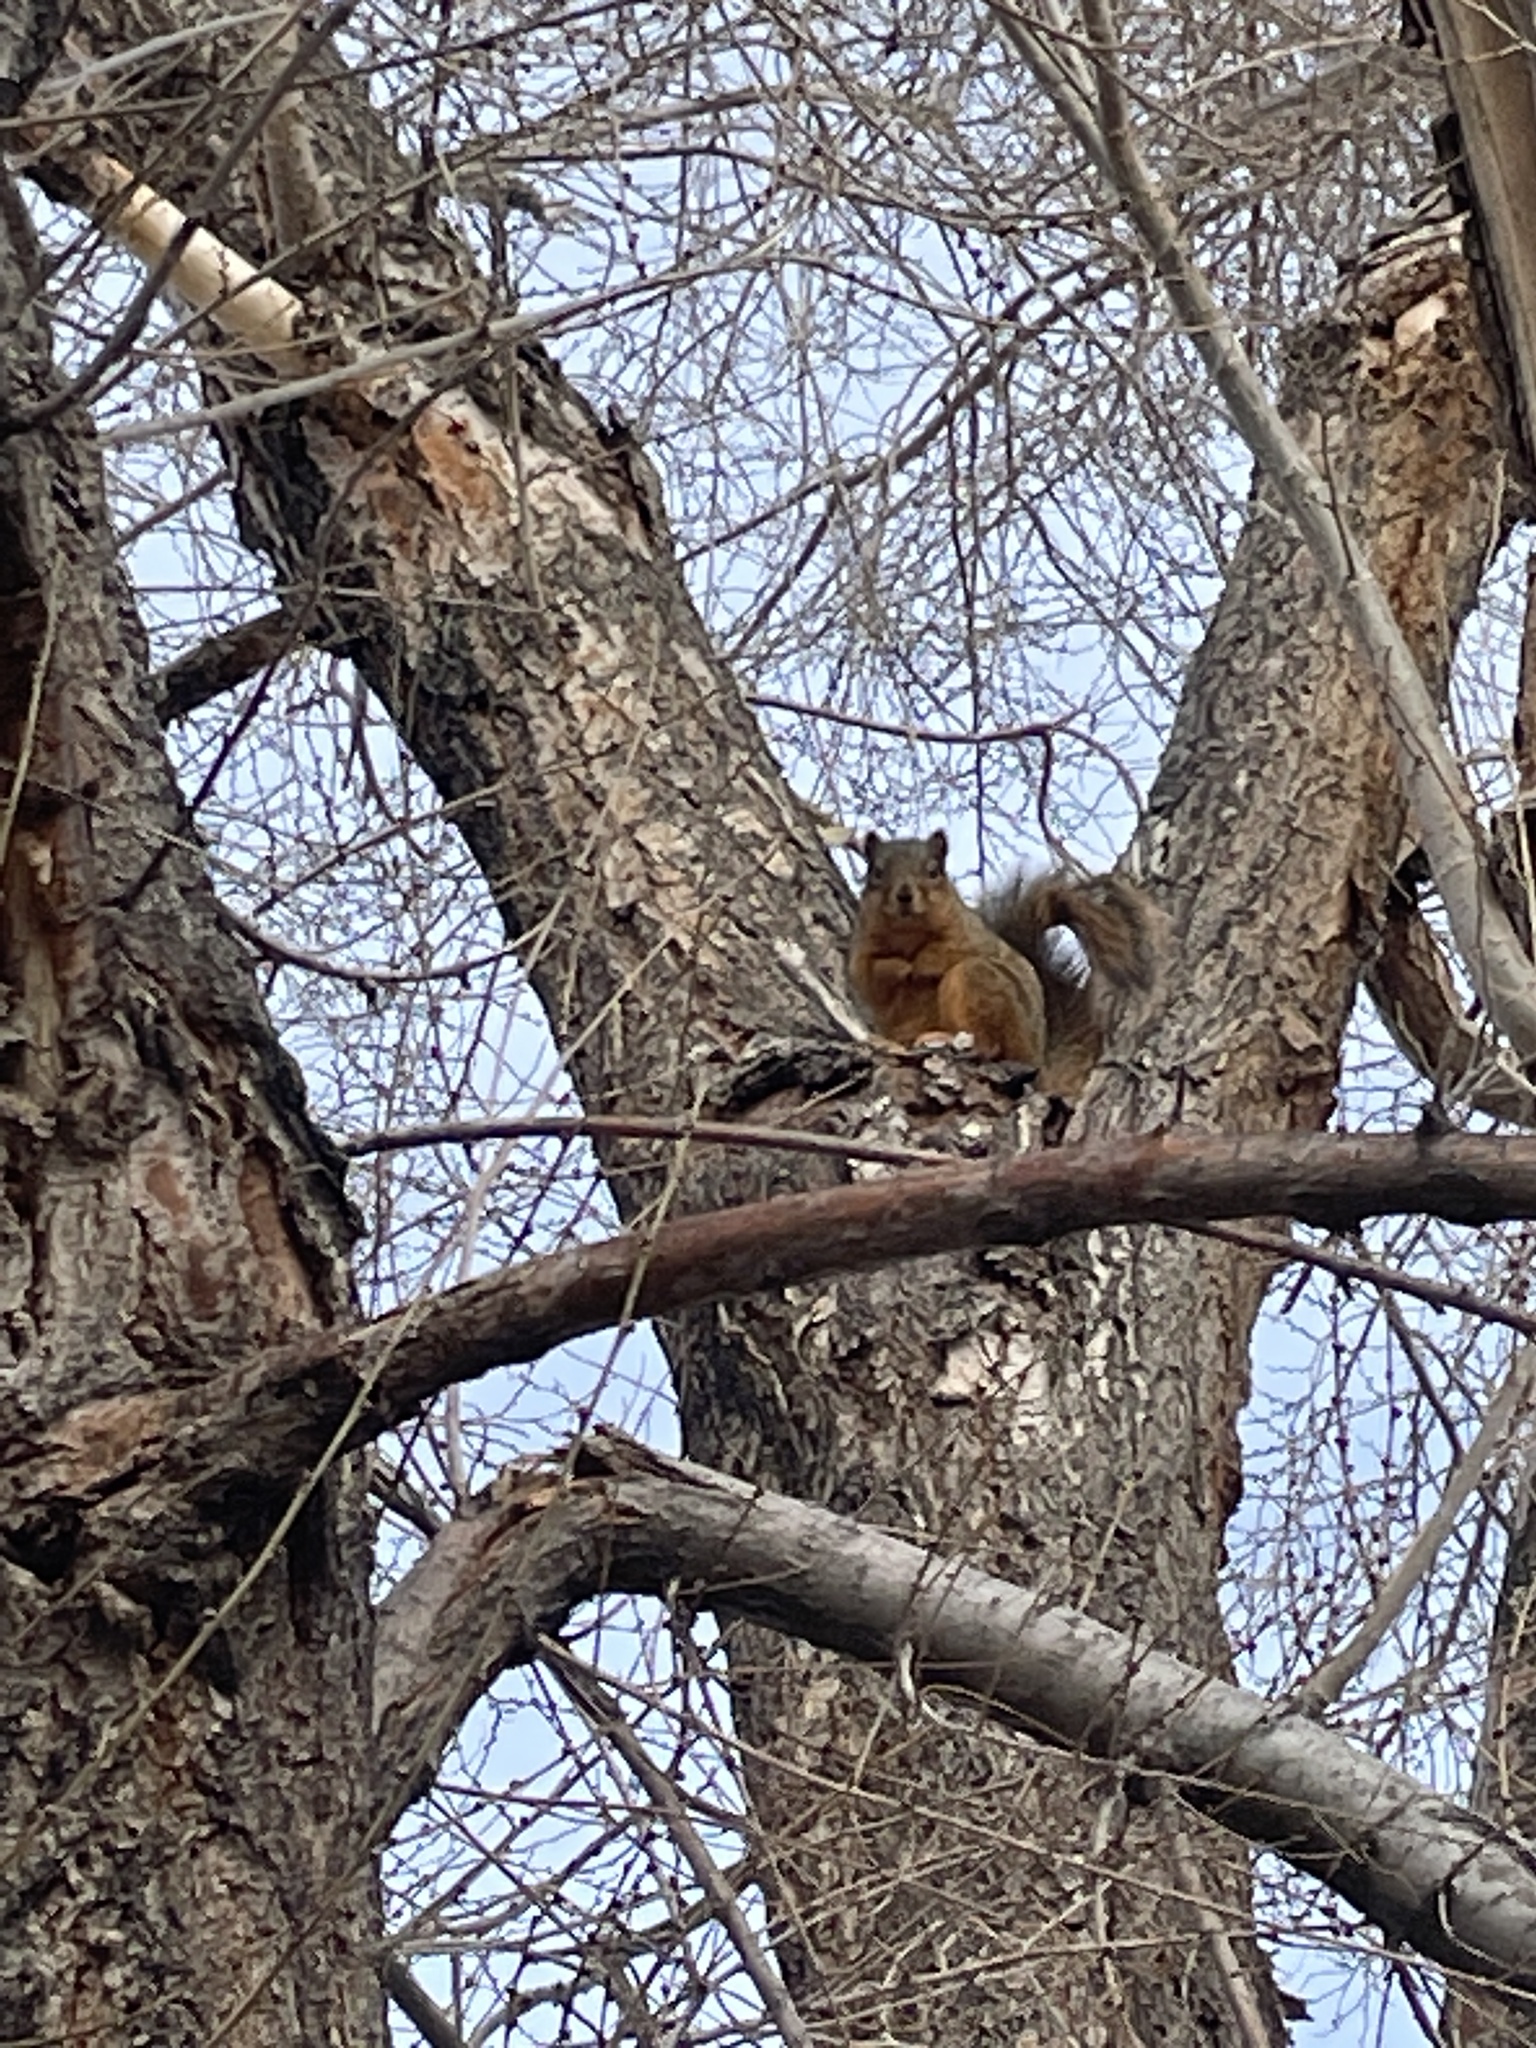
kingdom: Animalia
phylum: Chordata
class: Mammalia
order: Rodentia
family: Sciuridae
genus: Sciurus
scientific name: Sciurus niger
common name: Fox squirrel
